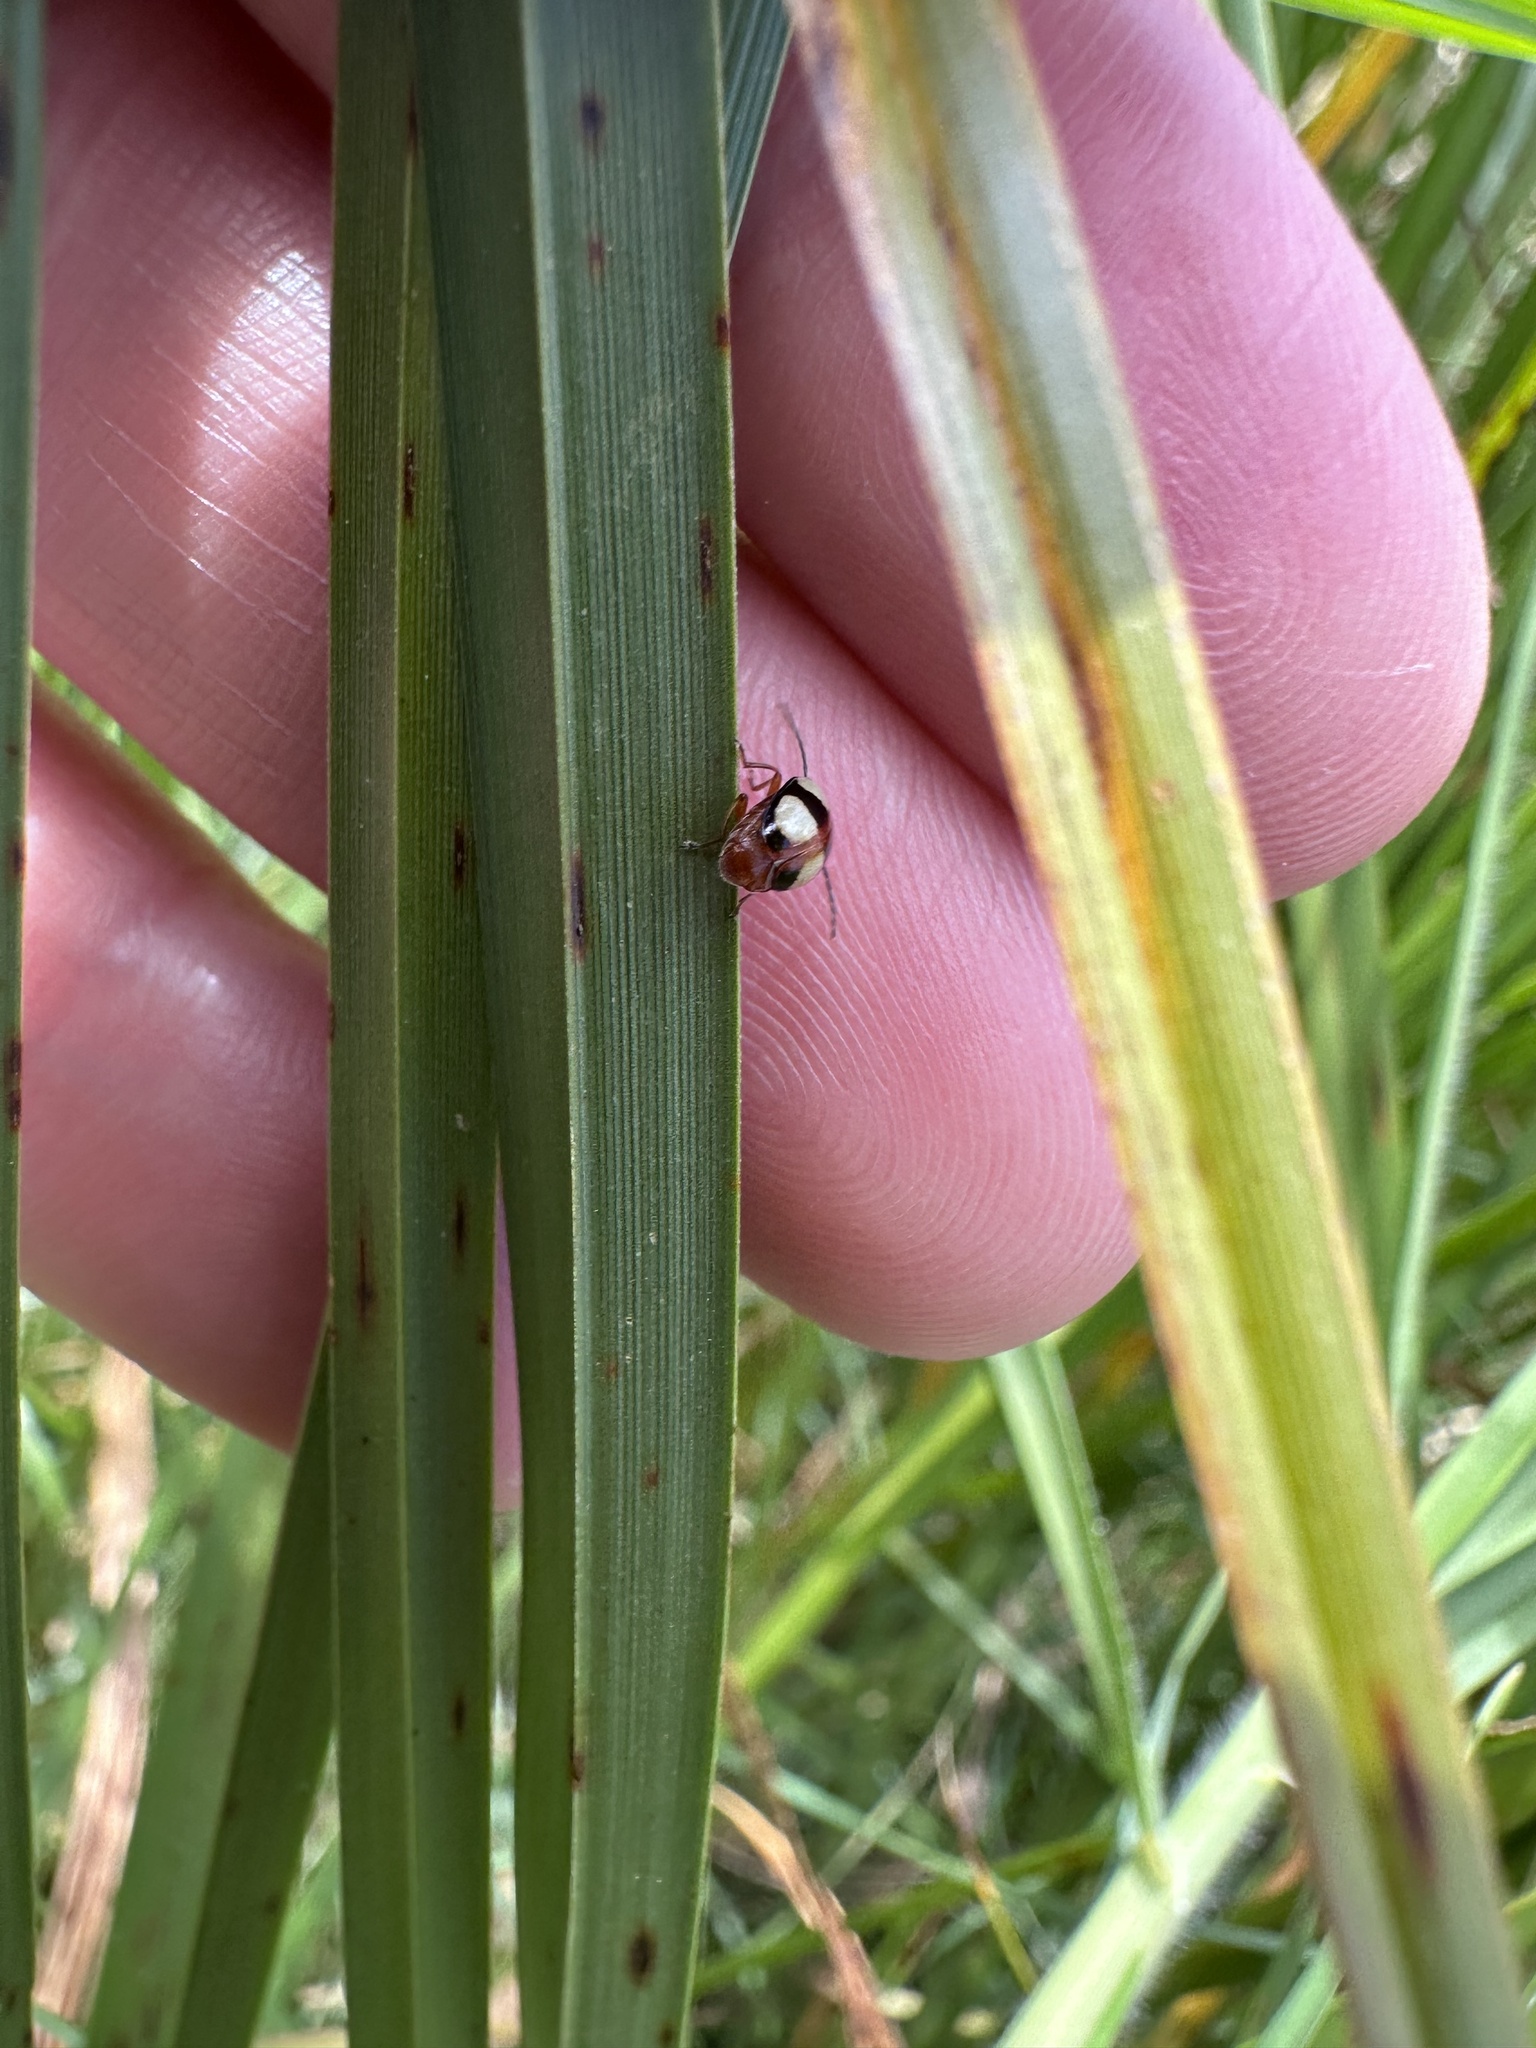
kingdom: Animalia
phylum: Arthropoda
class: Insecta
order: Coleoptera
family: Chrysomelidae
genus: Monolepta
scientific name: Monolepta
